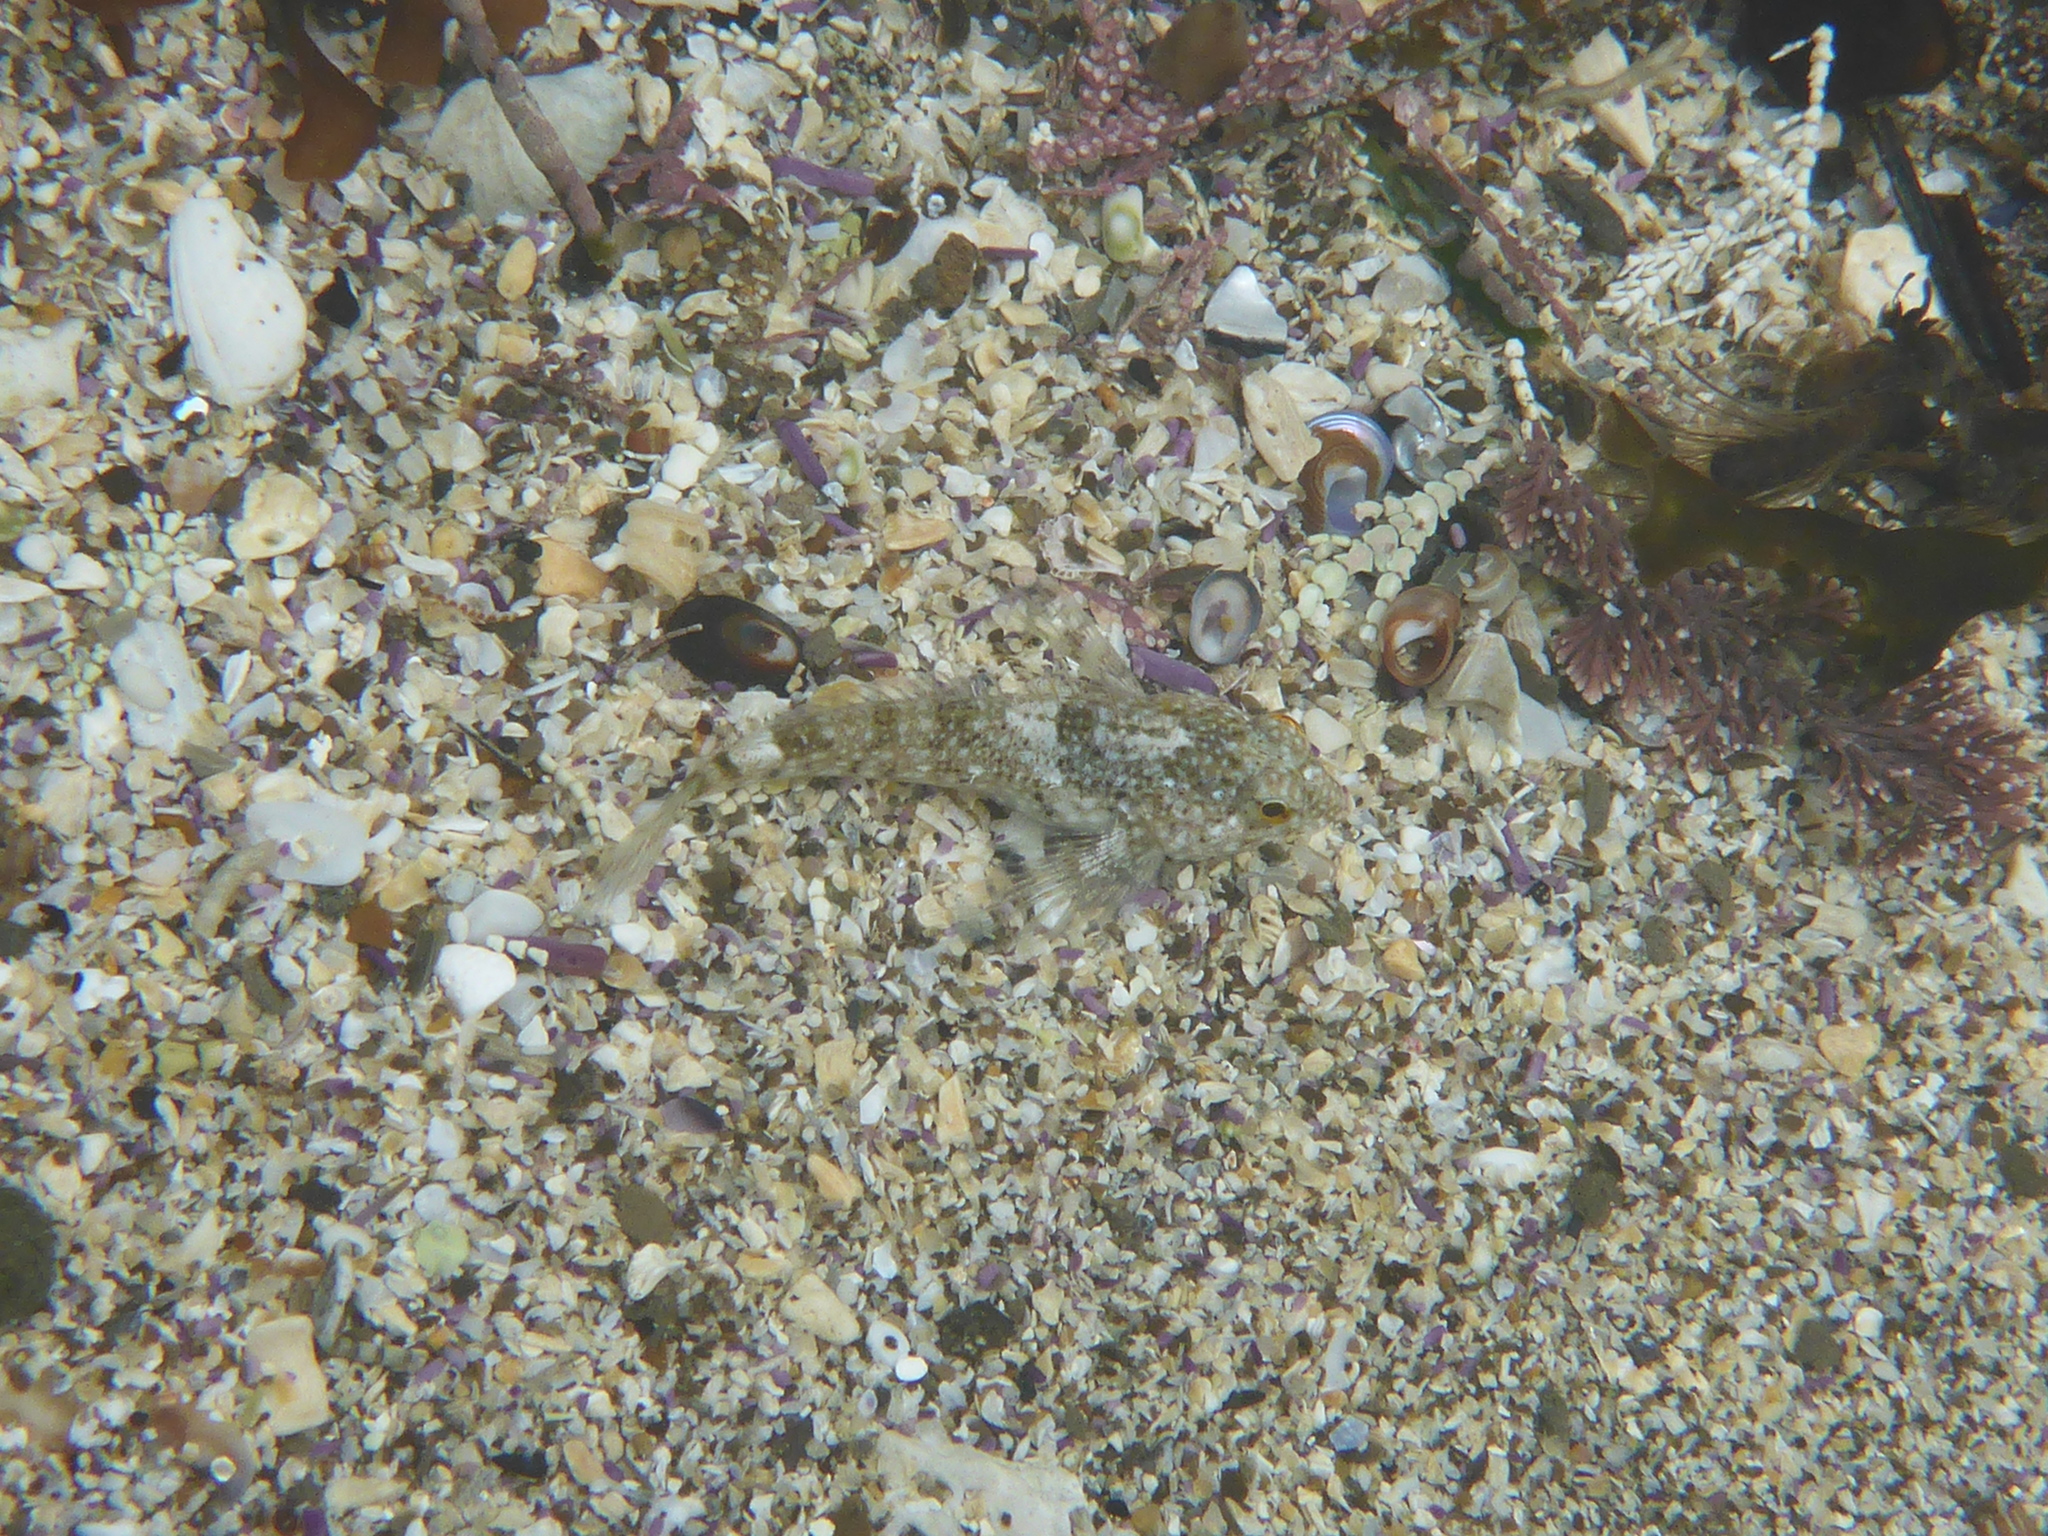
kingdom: Animalia
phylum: Chordata
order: Scorpaeniformes
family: Cottidae
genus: Clinocottus
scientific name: Clinocottus analis
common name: Woolly sculpin
